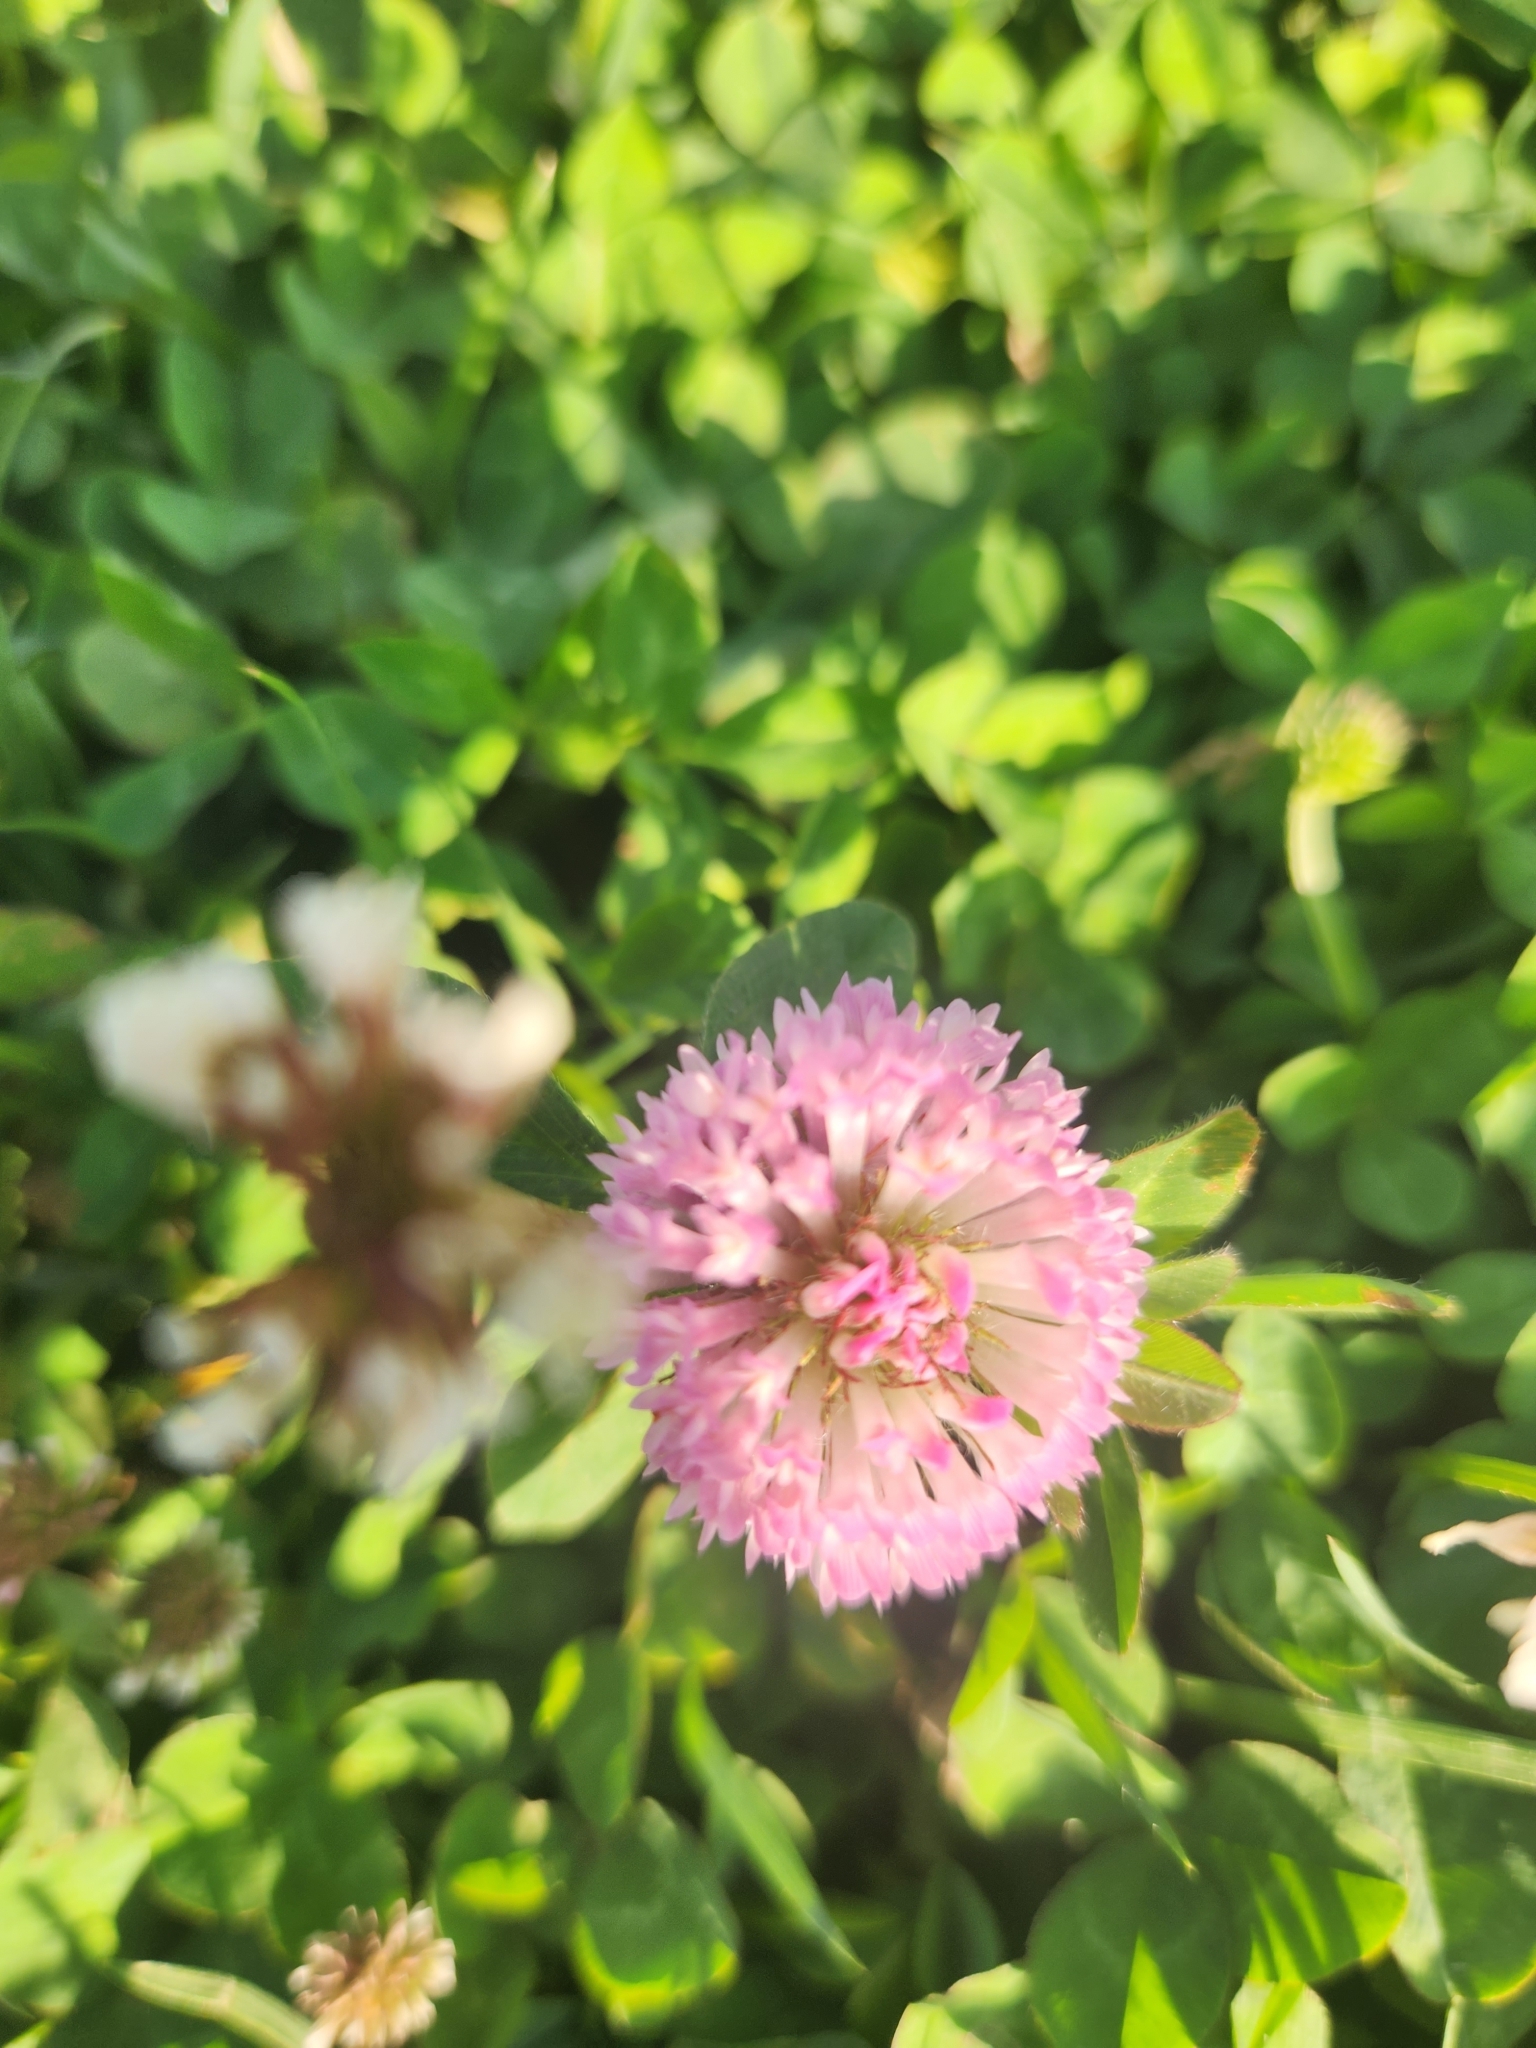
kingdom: Plantae
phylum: Tracheophyta
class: Magnoliopsida
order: Fabales
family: Fabaceae
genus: Trifolium
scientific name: Trifolium pratense
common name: Red clover
